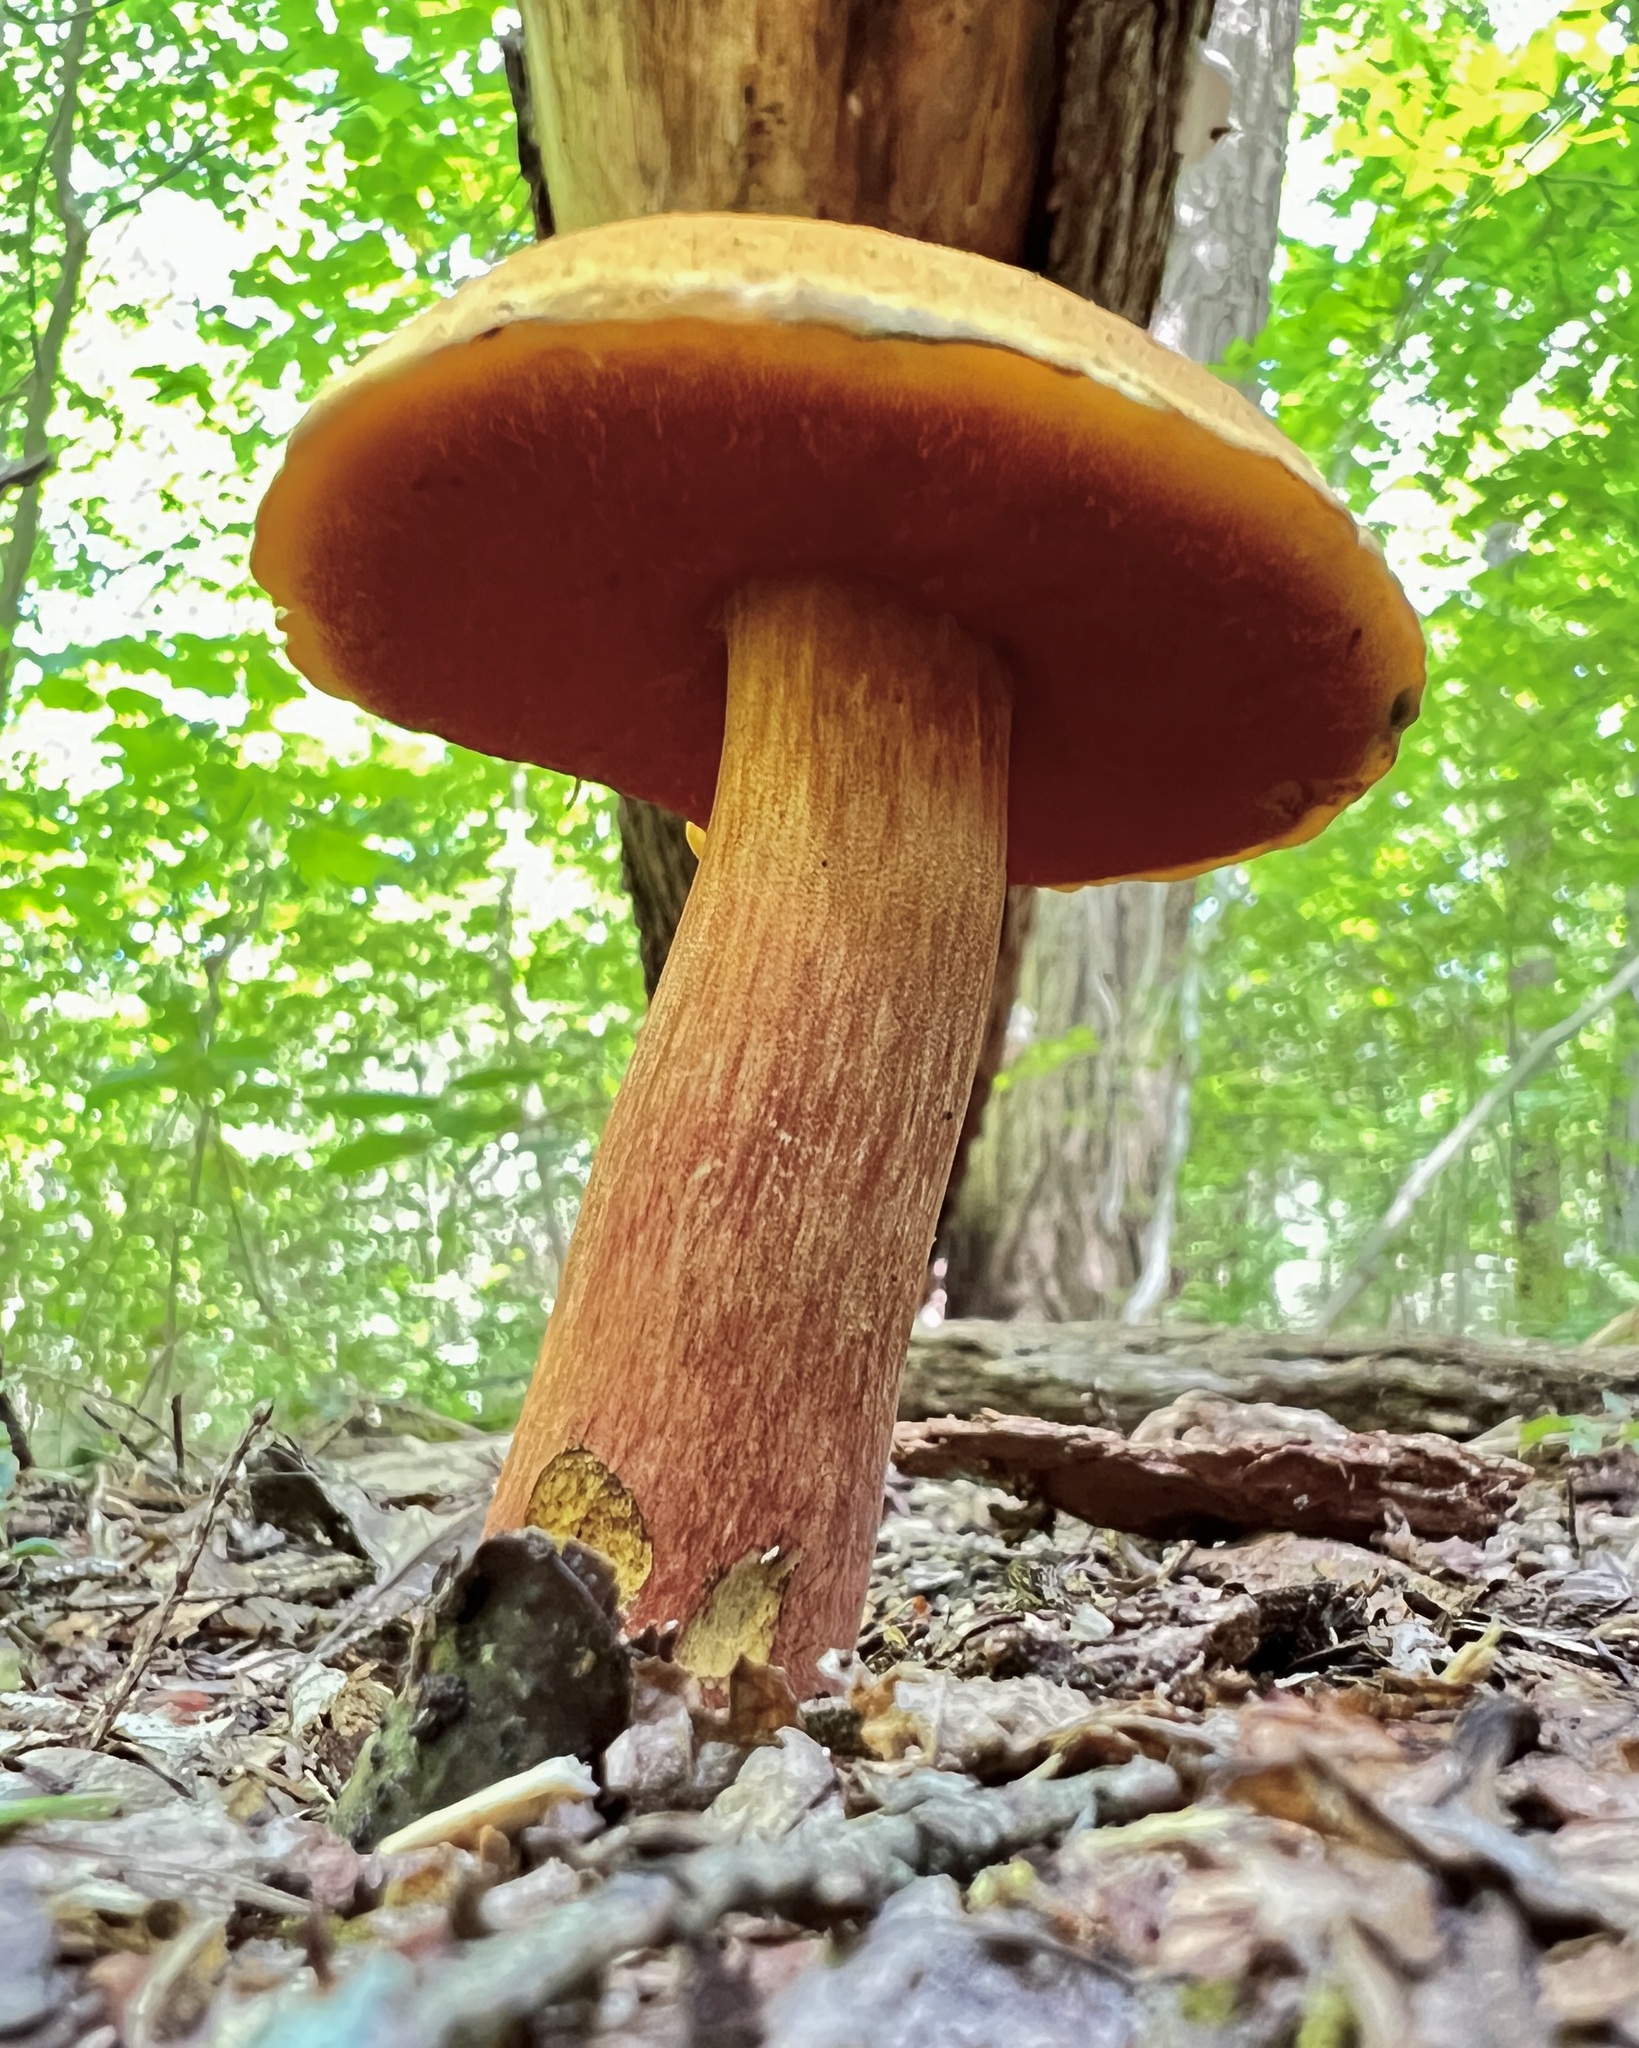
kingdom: Fungi
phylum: Basidiomycota
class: Agaricomycetes
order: Boletales
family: Boletaceae
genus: Boletus
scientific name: Boletus subvelutipes
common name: Red-mouth bolete
